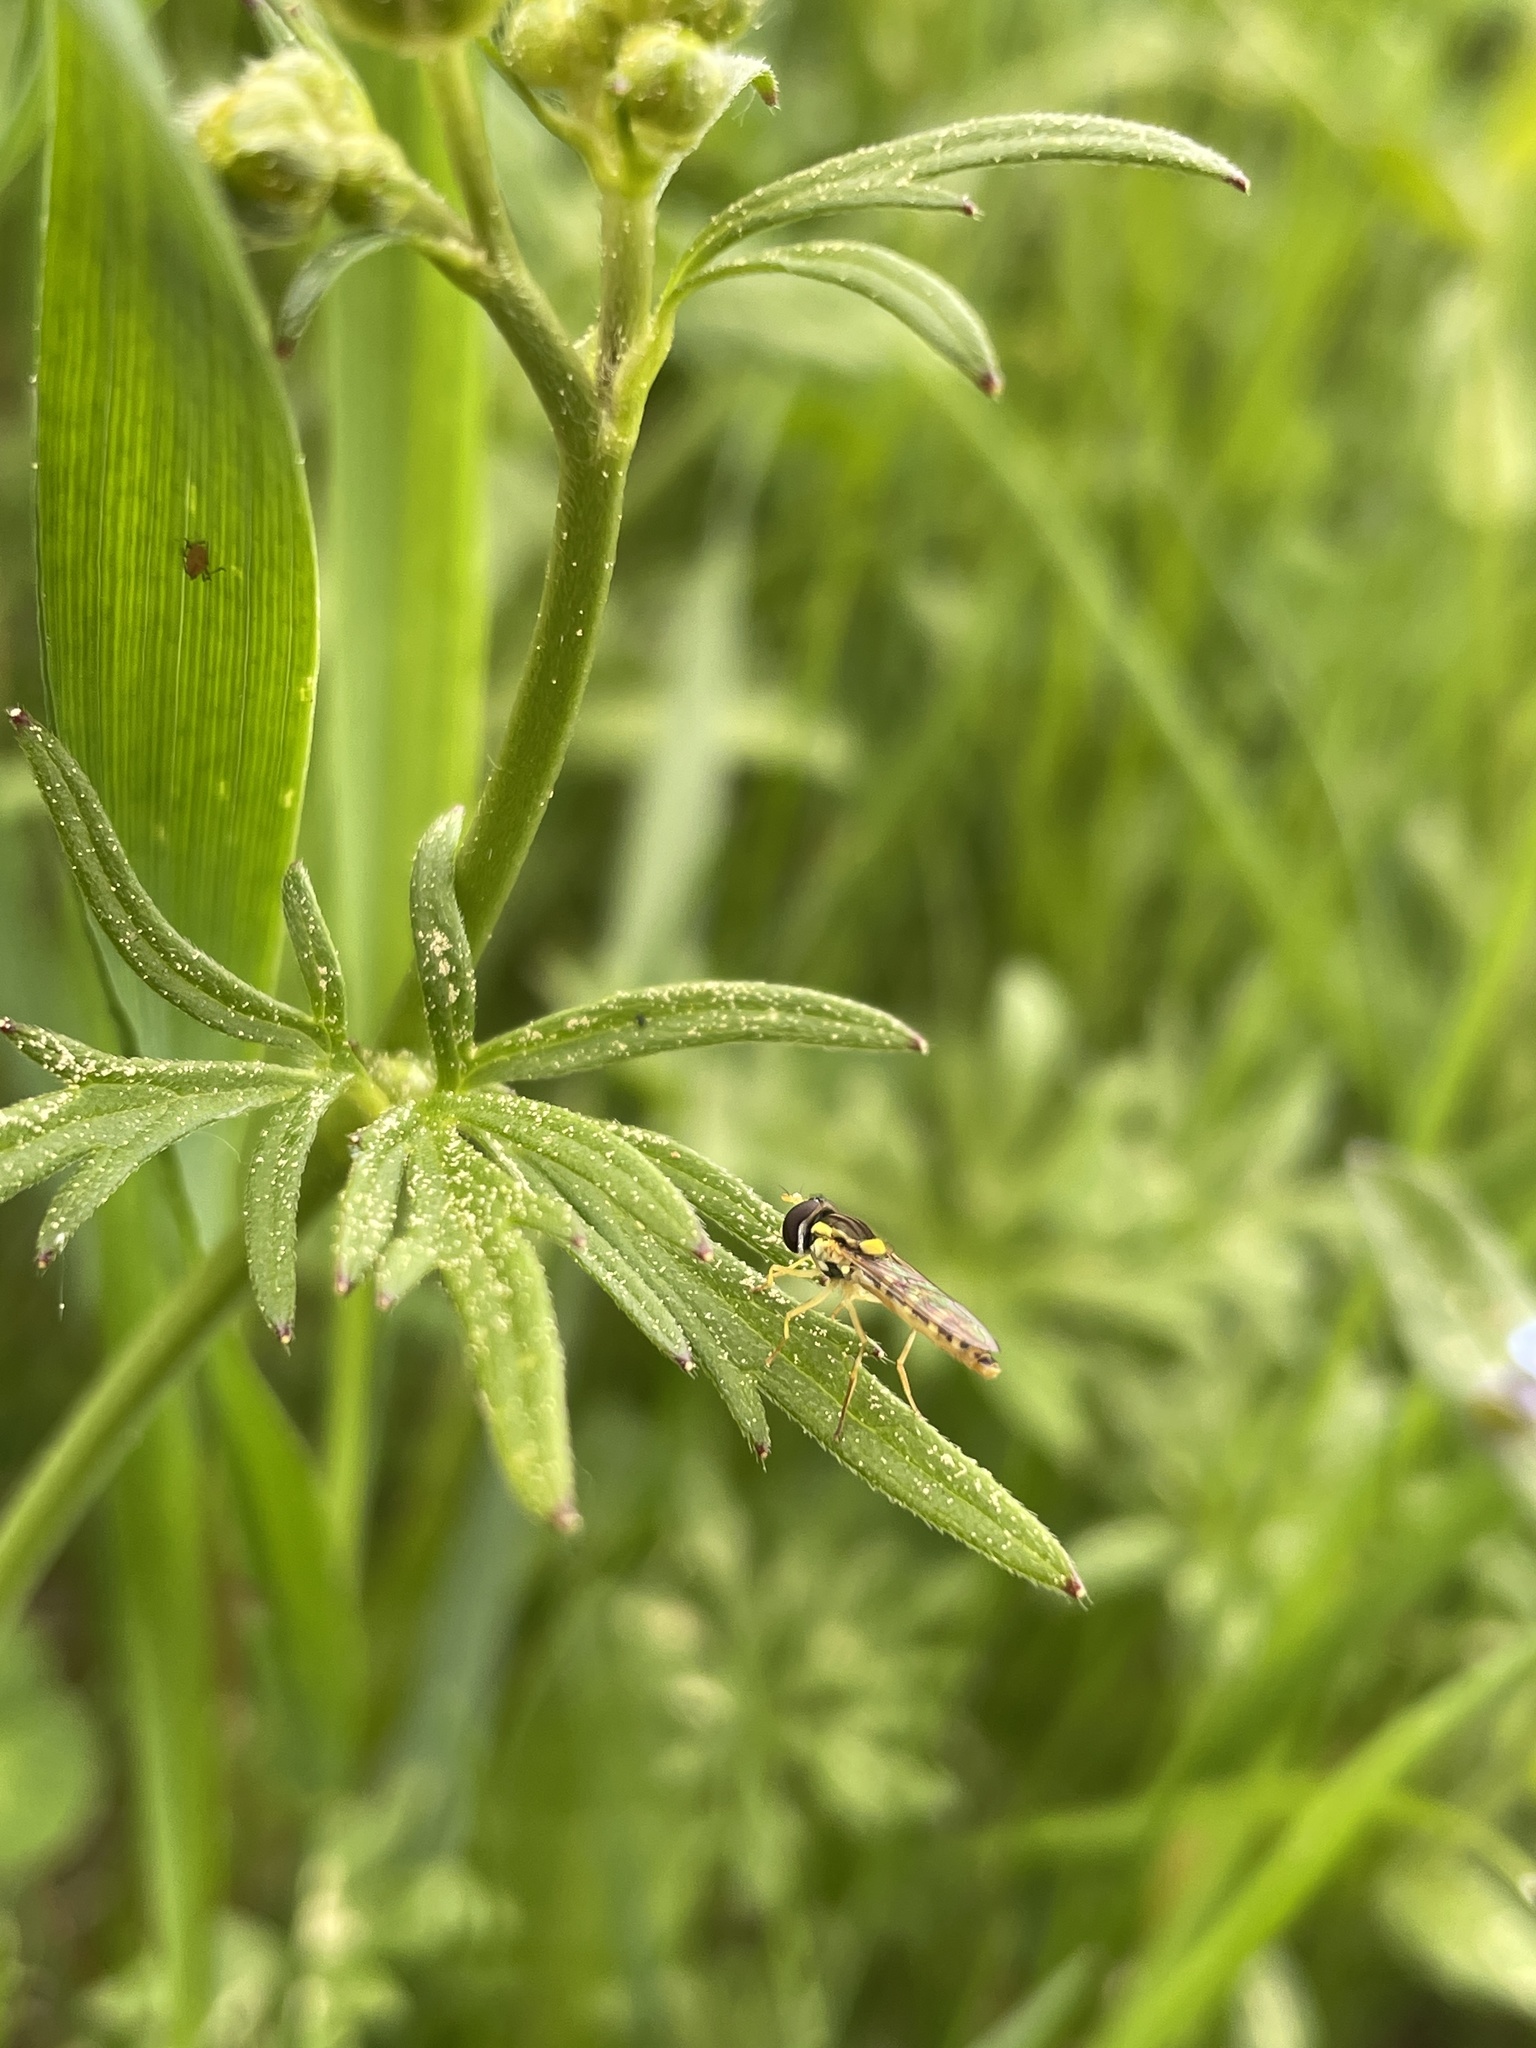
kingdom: Animalia
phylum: Arthropoda
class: Insecta
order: Diptera
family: Syrphidae
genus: Sphaerophoria
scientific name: Sphaerophoria
